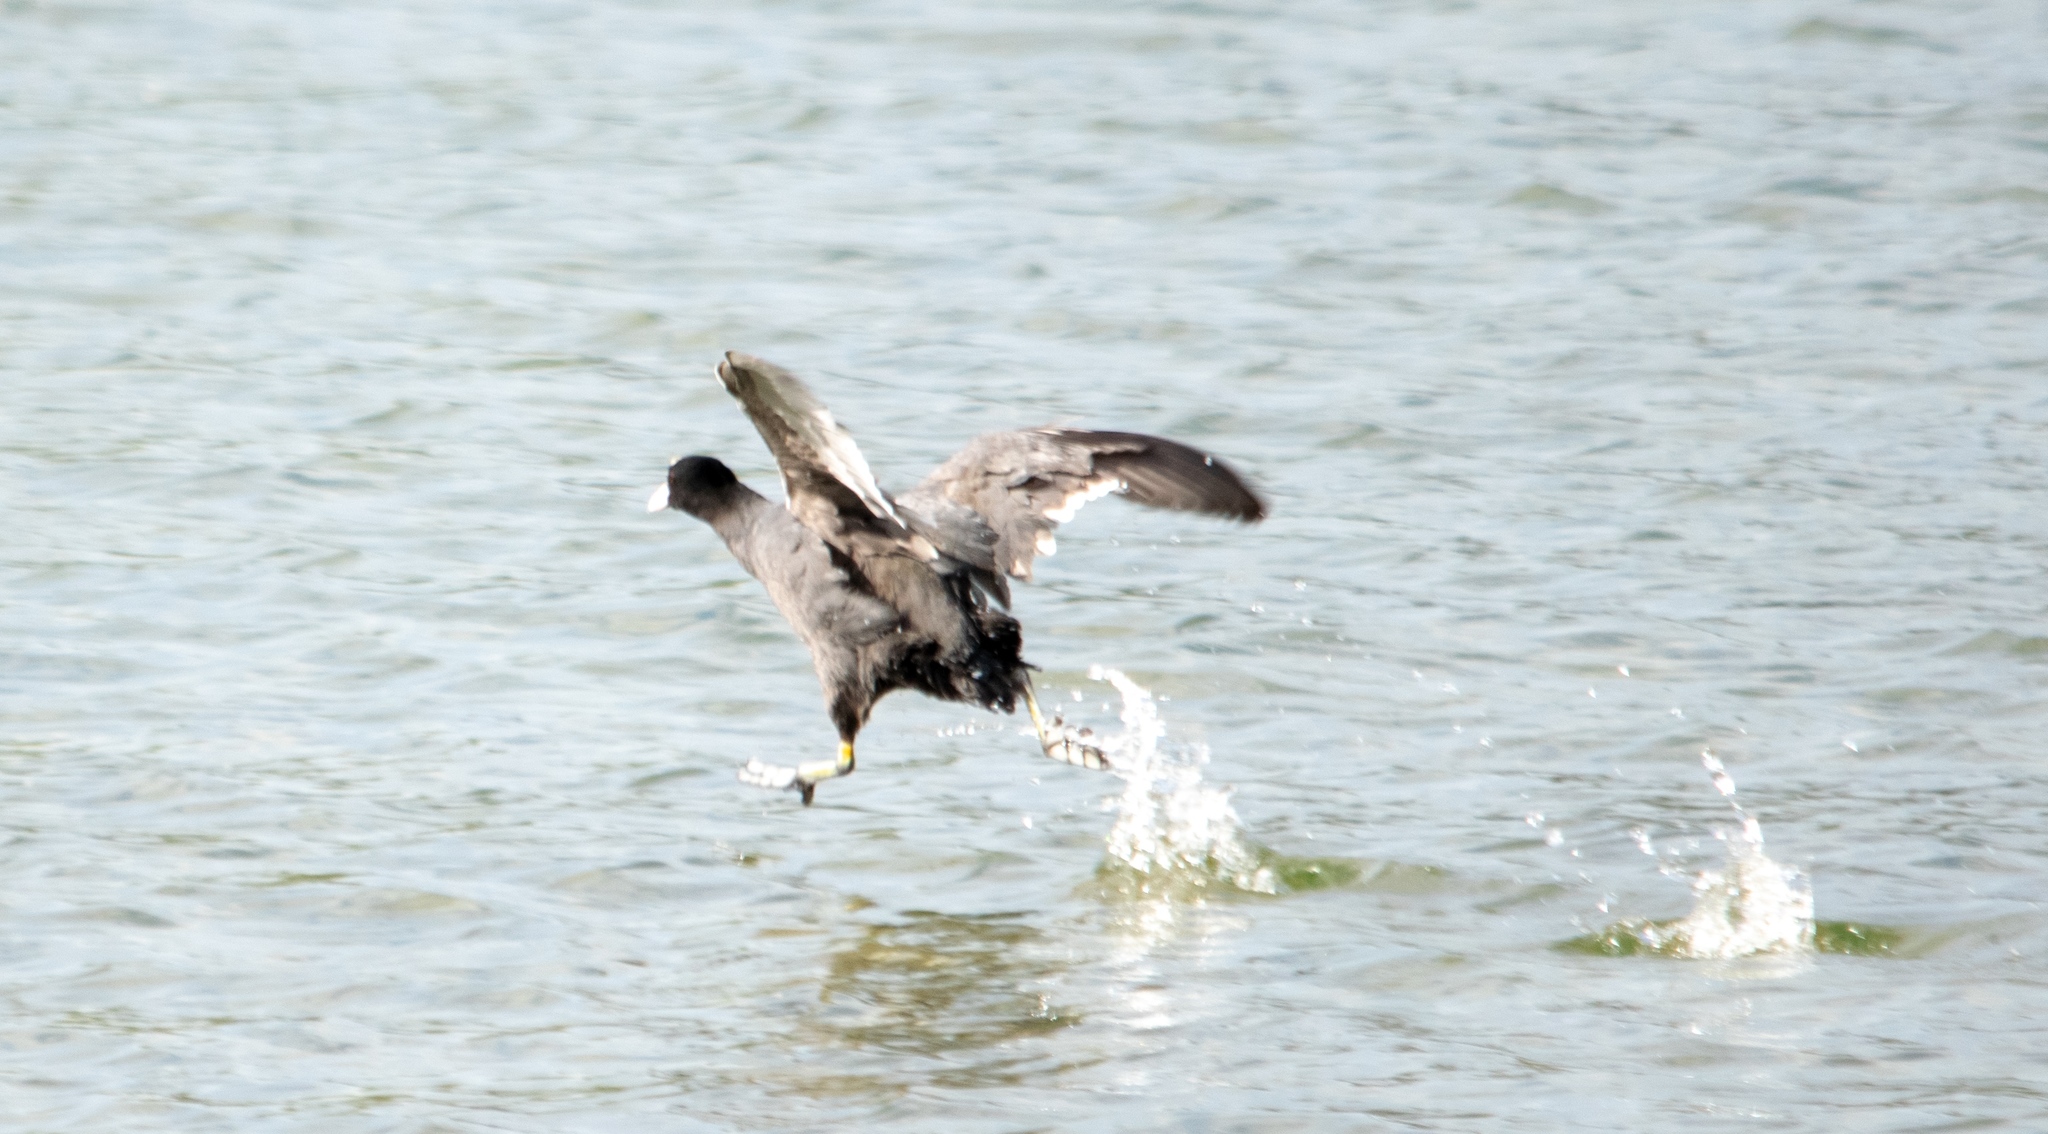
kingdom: Animalia
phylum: Chordata
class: Aves
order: Gruiformes
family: Rallidae
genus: Fulica
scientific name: Fulica atra
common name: Eurasian coot
